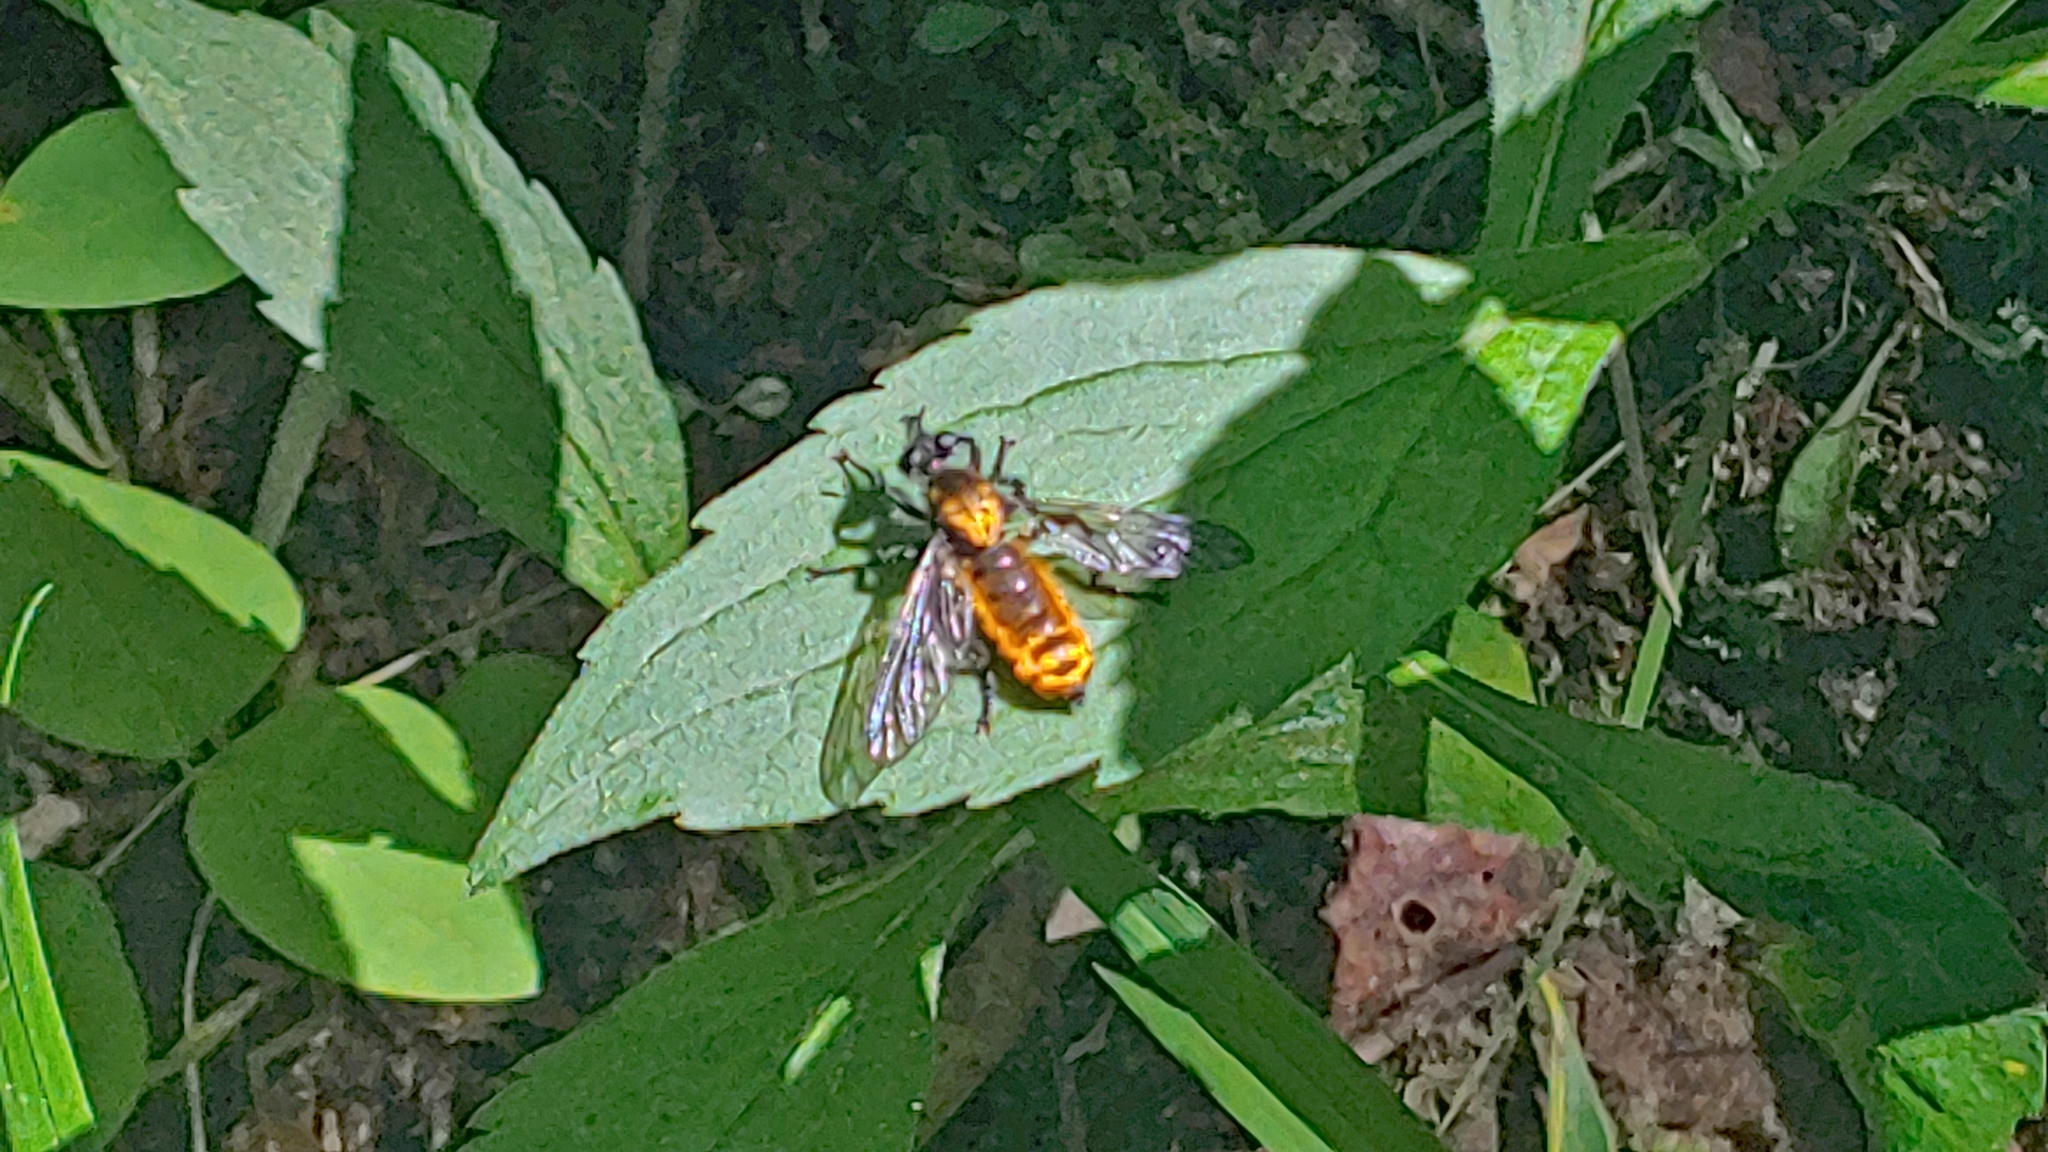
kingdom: Animalia
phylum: Arthropoda
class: Insecta
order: Diptera
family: Asilidae
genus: Laphria
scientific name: Laphria
